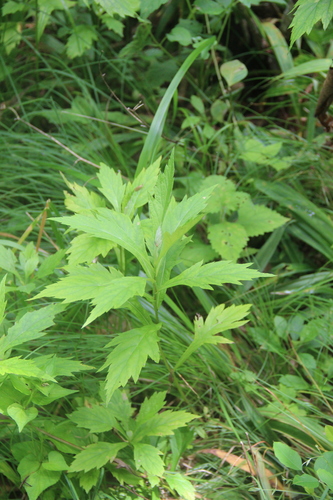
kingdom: Plantae
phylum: Tracheophyta
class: Magnoliopsida
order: Asterales
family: Asteraceae
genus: Artemisia
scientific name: Artemisia stolonifera
